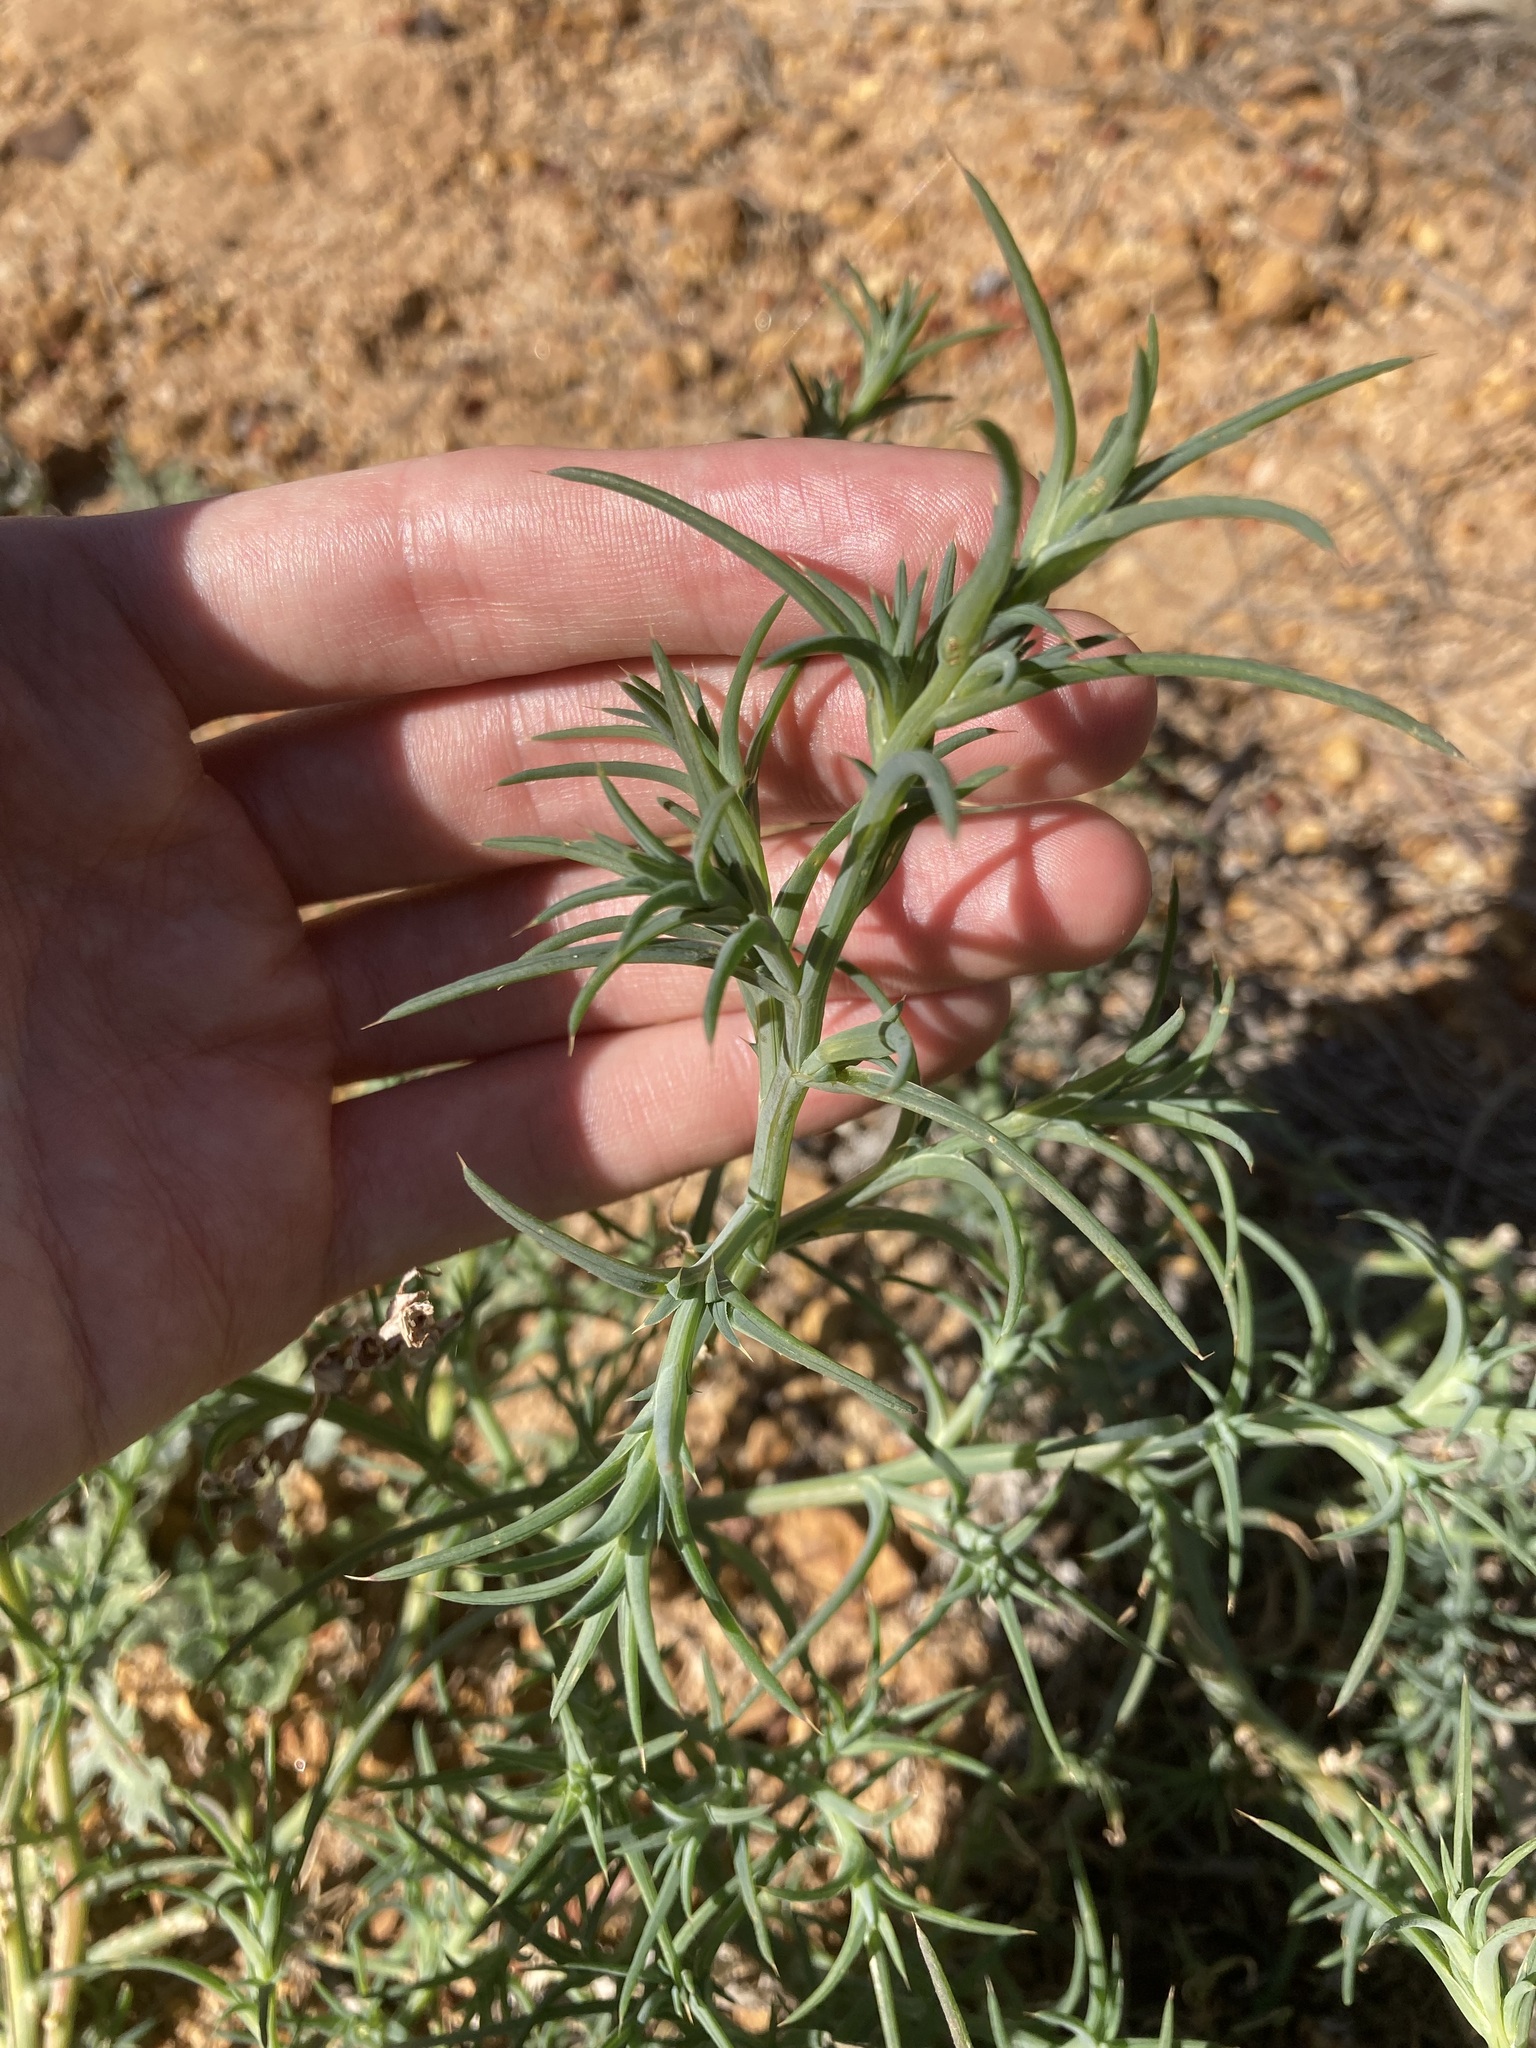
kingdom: Plantae
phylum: Tracheophyta
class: Magnoliopsida
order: Caryophyllales
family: Amaranthaceae
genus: Salsola
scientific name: Salsola australis
